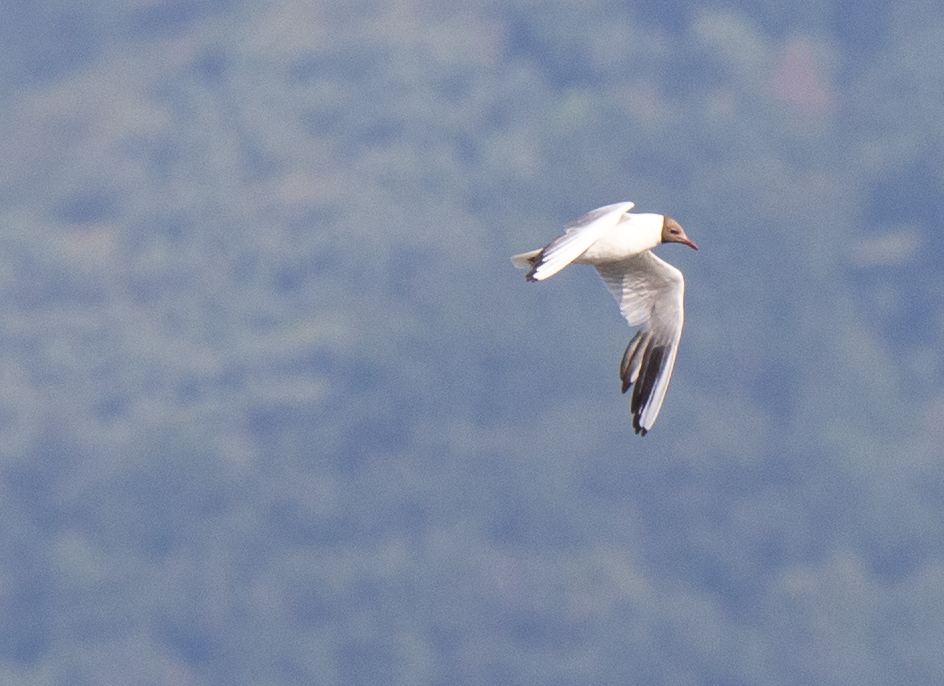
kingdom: Animalia
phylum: Chordata
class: Aves
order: Charadriiformes
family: Laridae
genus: Chroicocephalus
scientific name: Chroicocephalus ridibundus
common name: Black-headed gull
